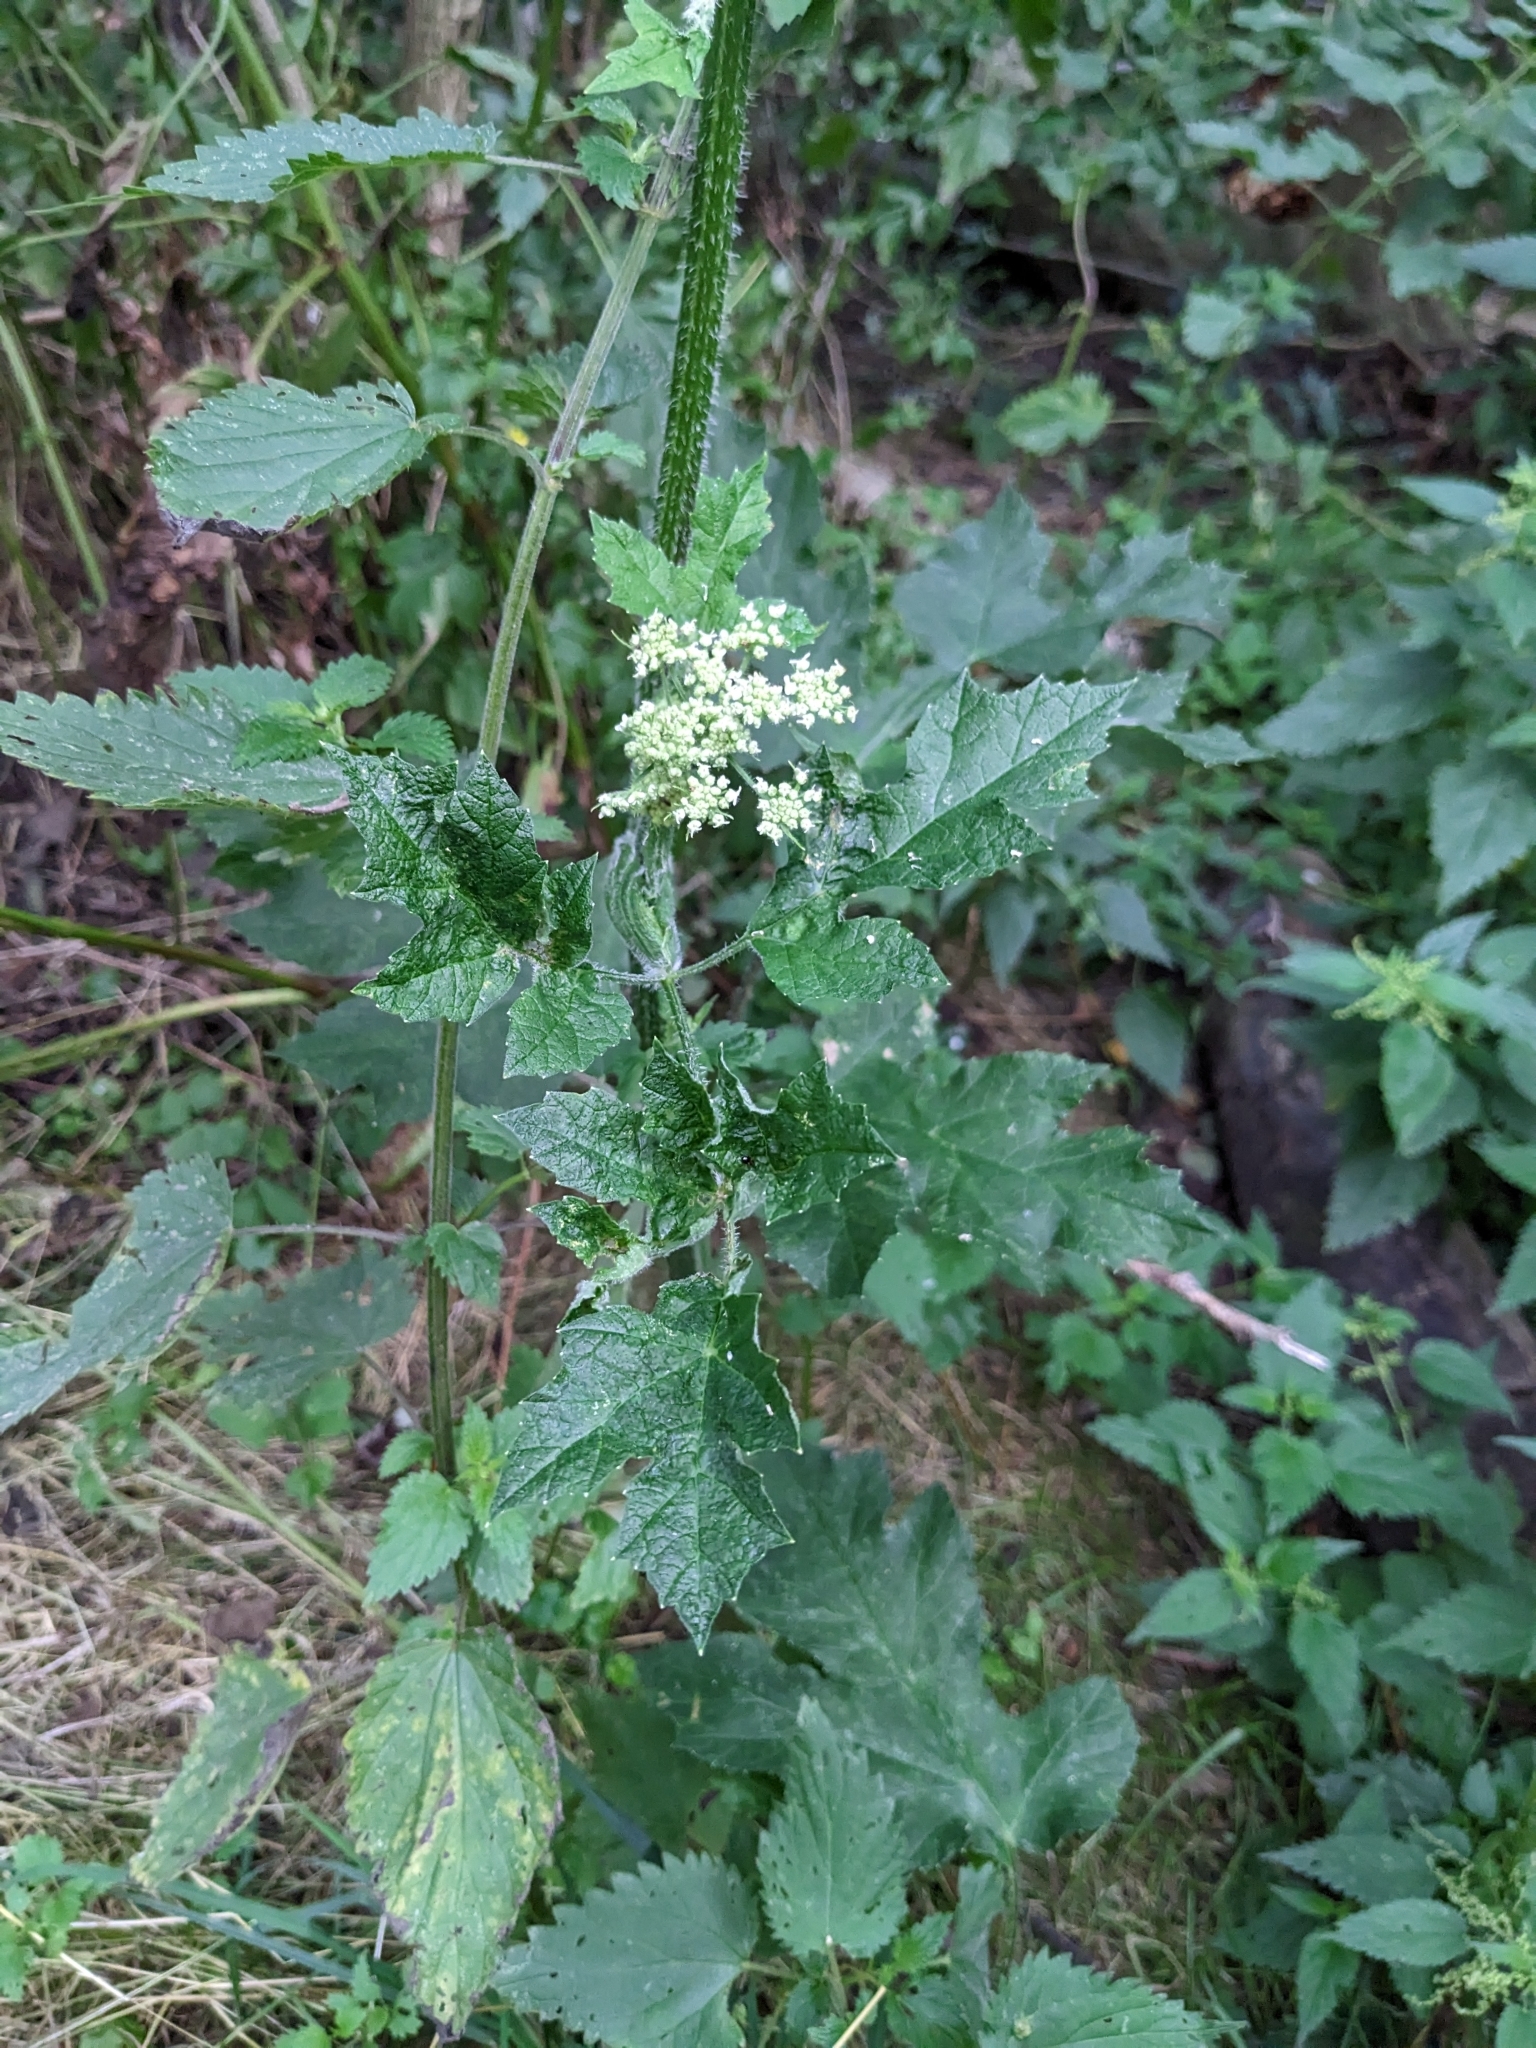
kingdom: Plantae
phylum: Tracheophyta
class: Magnoliopsida
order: Apiales
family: Apiaceae
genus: Heracleum
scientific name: Heracleum sphondylium
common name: Hogweed
